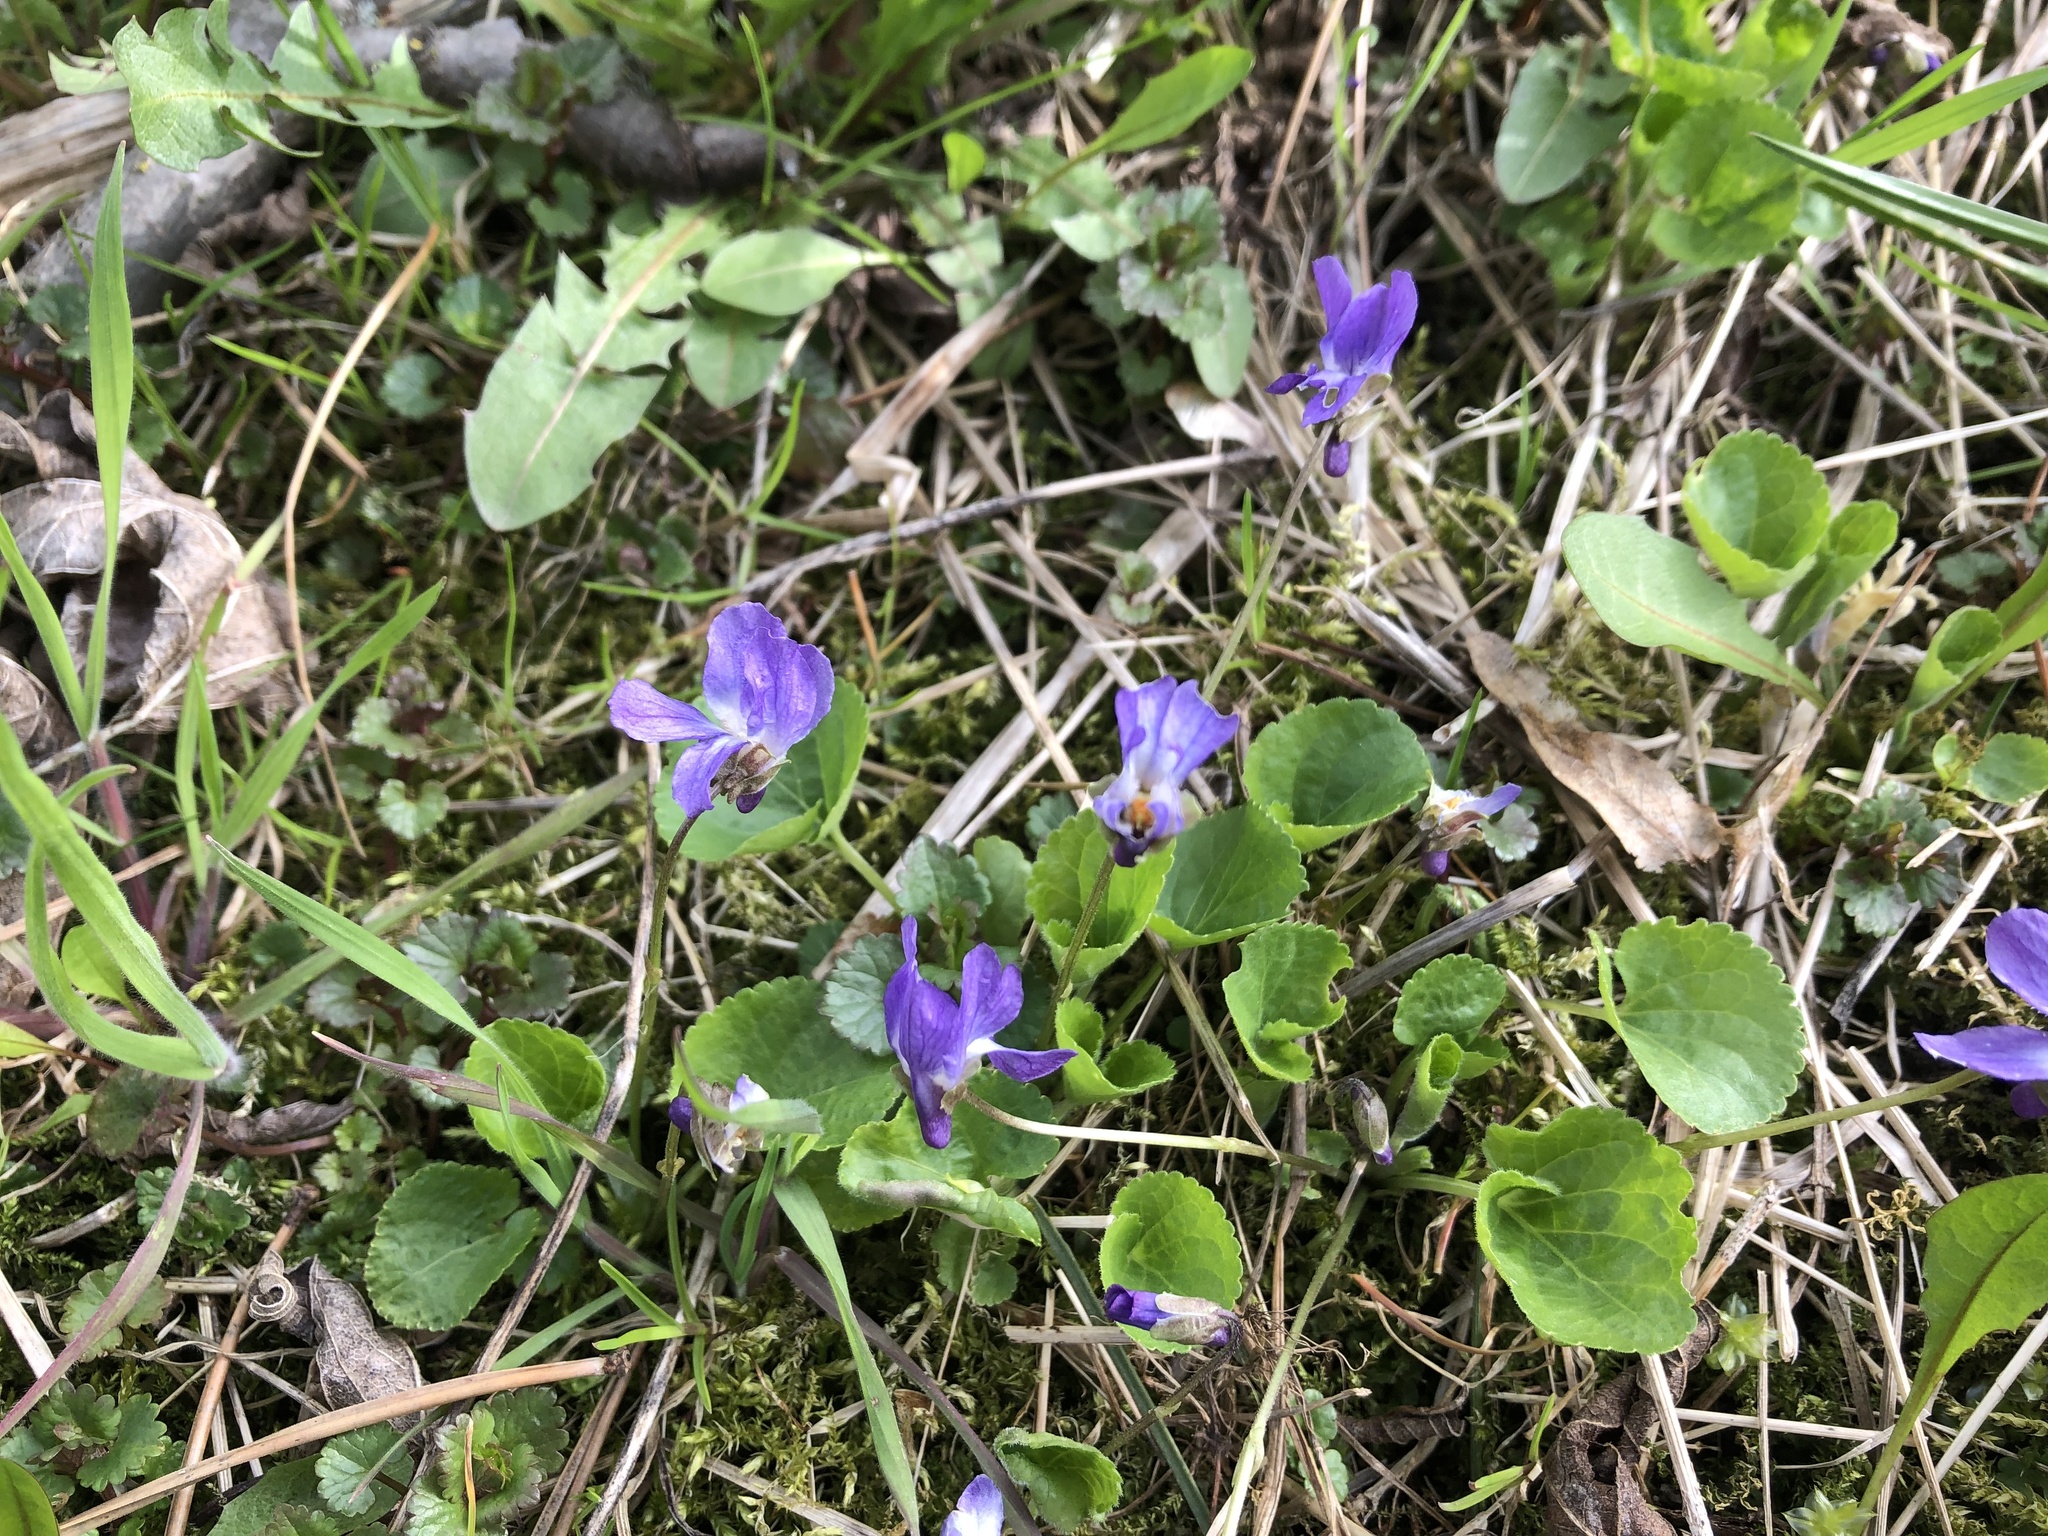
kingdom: Plantae
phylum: Tracheophyta
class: Magnoliopsida
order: Malpighiales
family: Violaceae
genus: Viola
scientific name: Viola odorata
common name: Sweet violet
